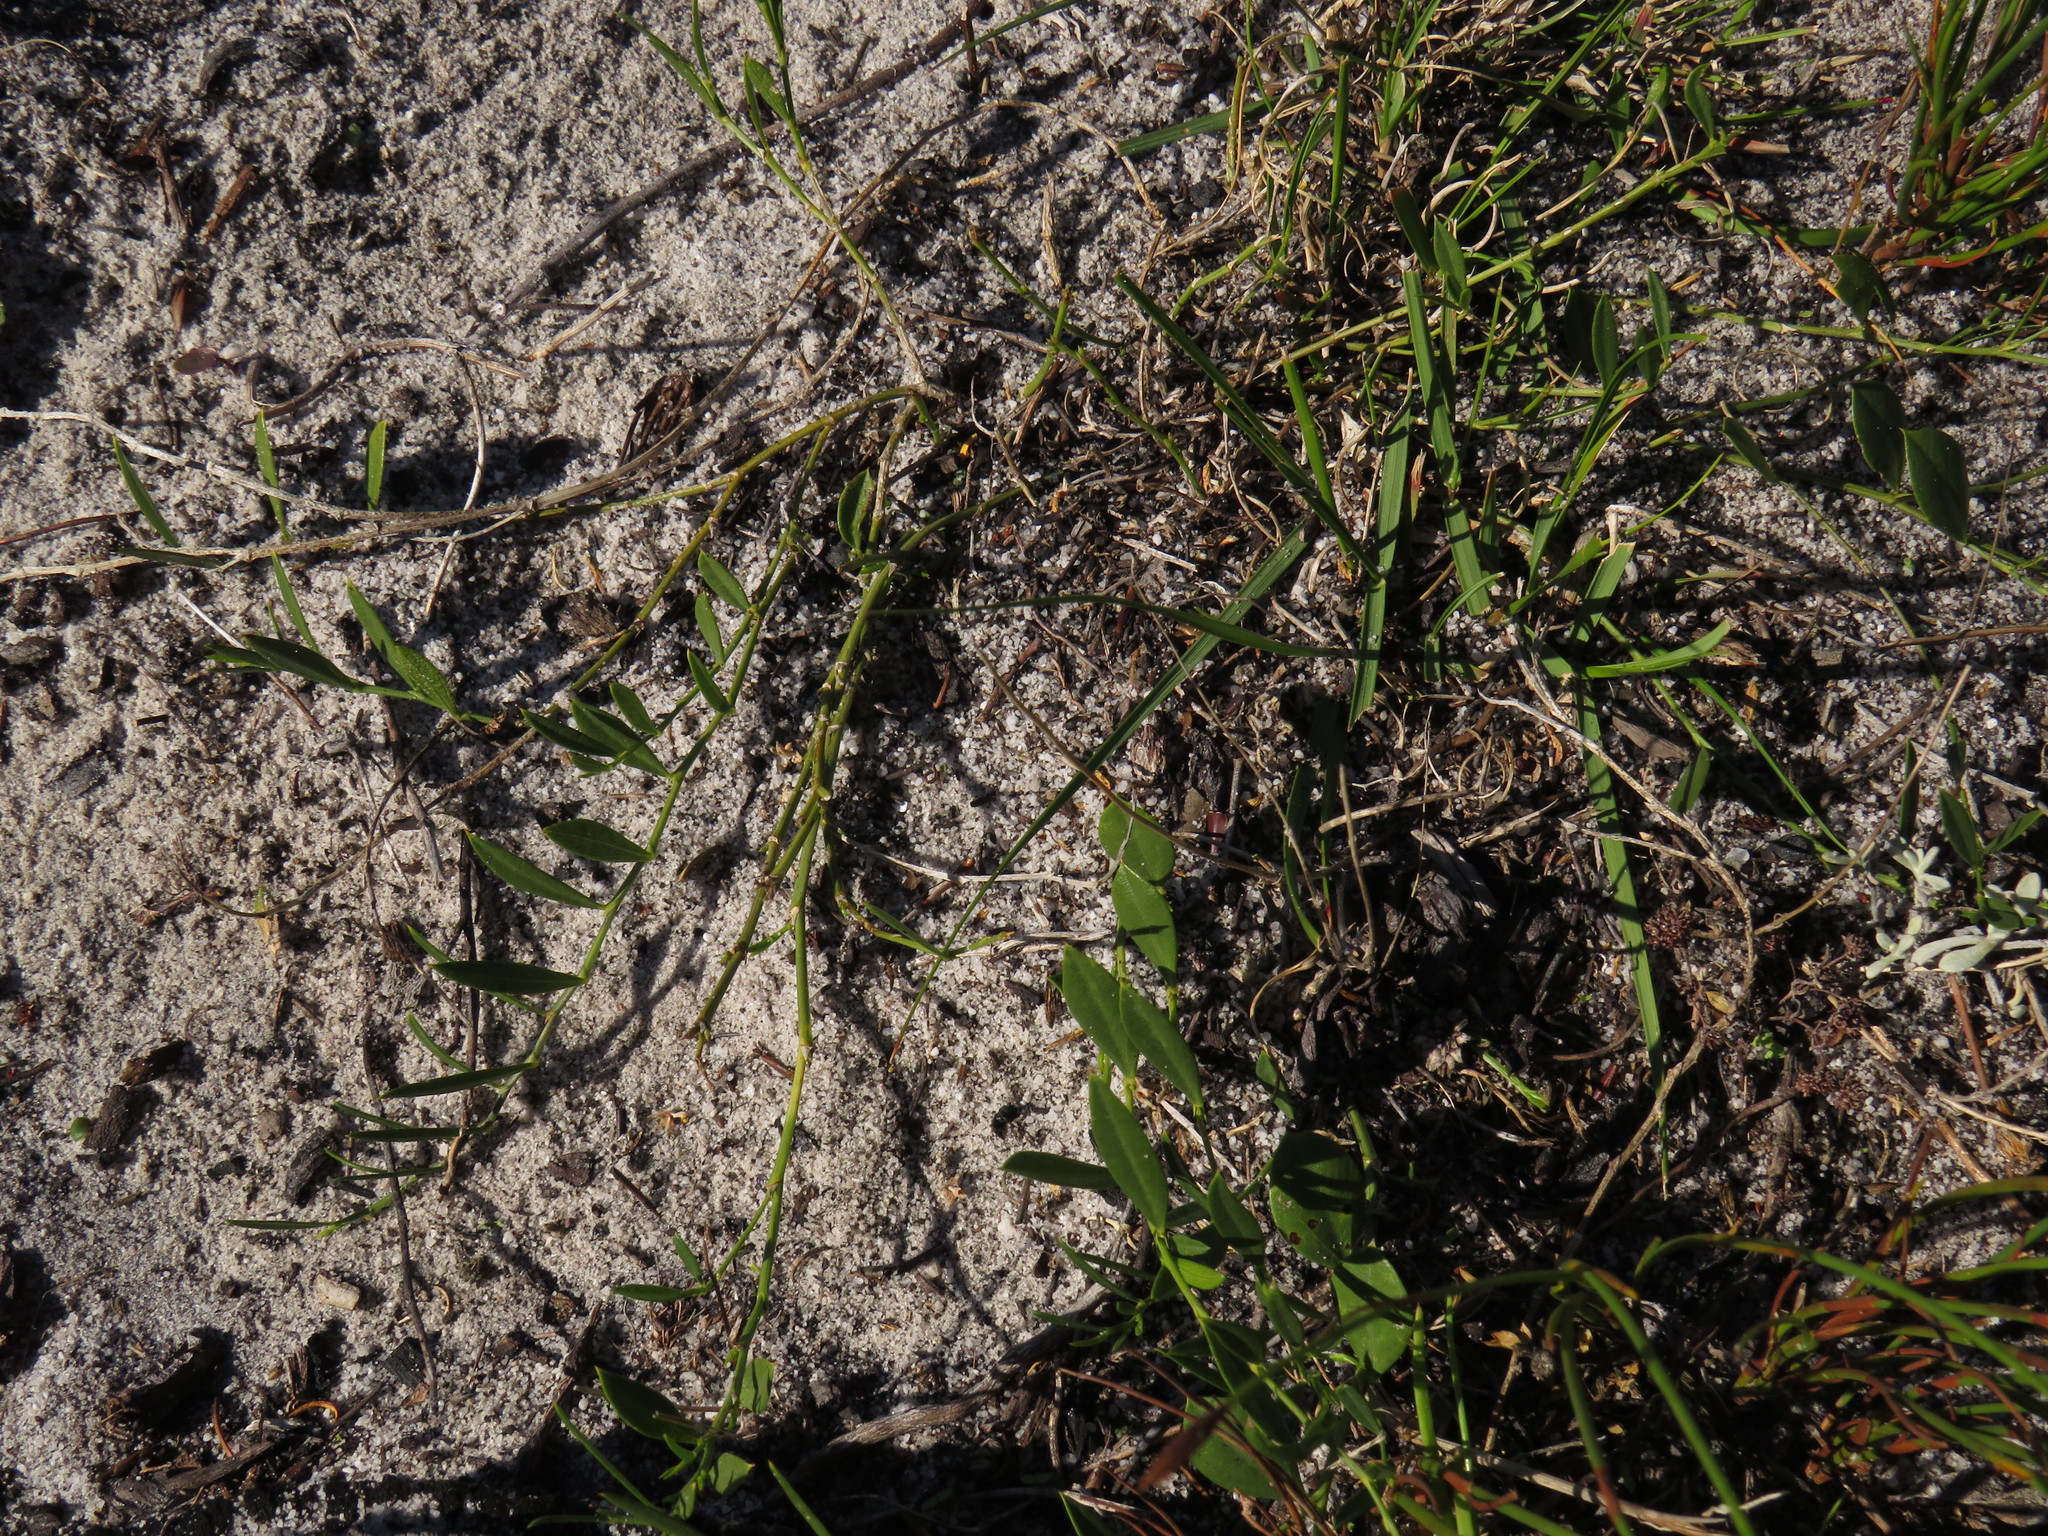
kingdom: Plantae
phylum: Tracheophyta
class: Magnoliopsida
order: Fabales
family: Fabaceae
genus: Psoralea
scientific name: Psoralea laxa
